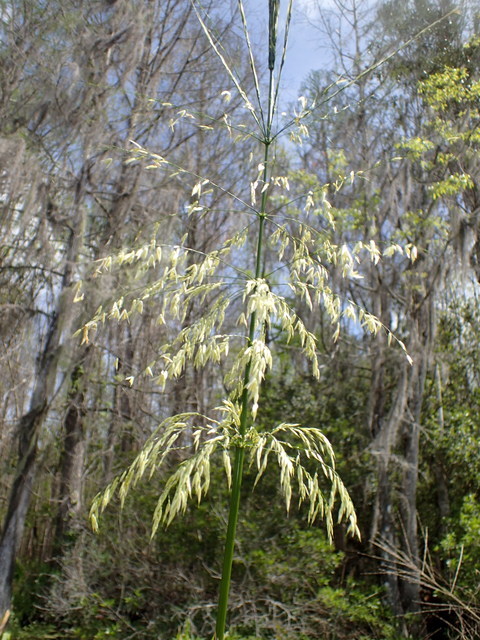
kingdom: Plantae
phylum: Tracheophyta
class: Liliopsida
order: Poales
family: Poaceae
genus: Zizania
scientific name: Zizania aquatica
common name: Annual wildrice
